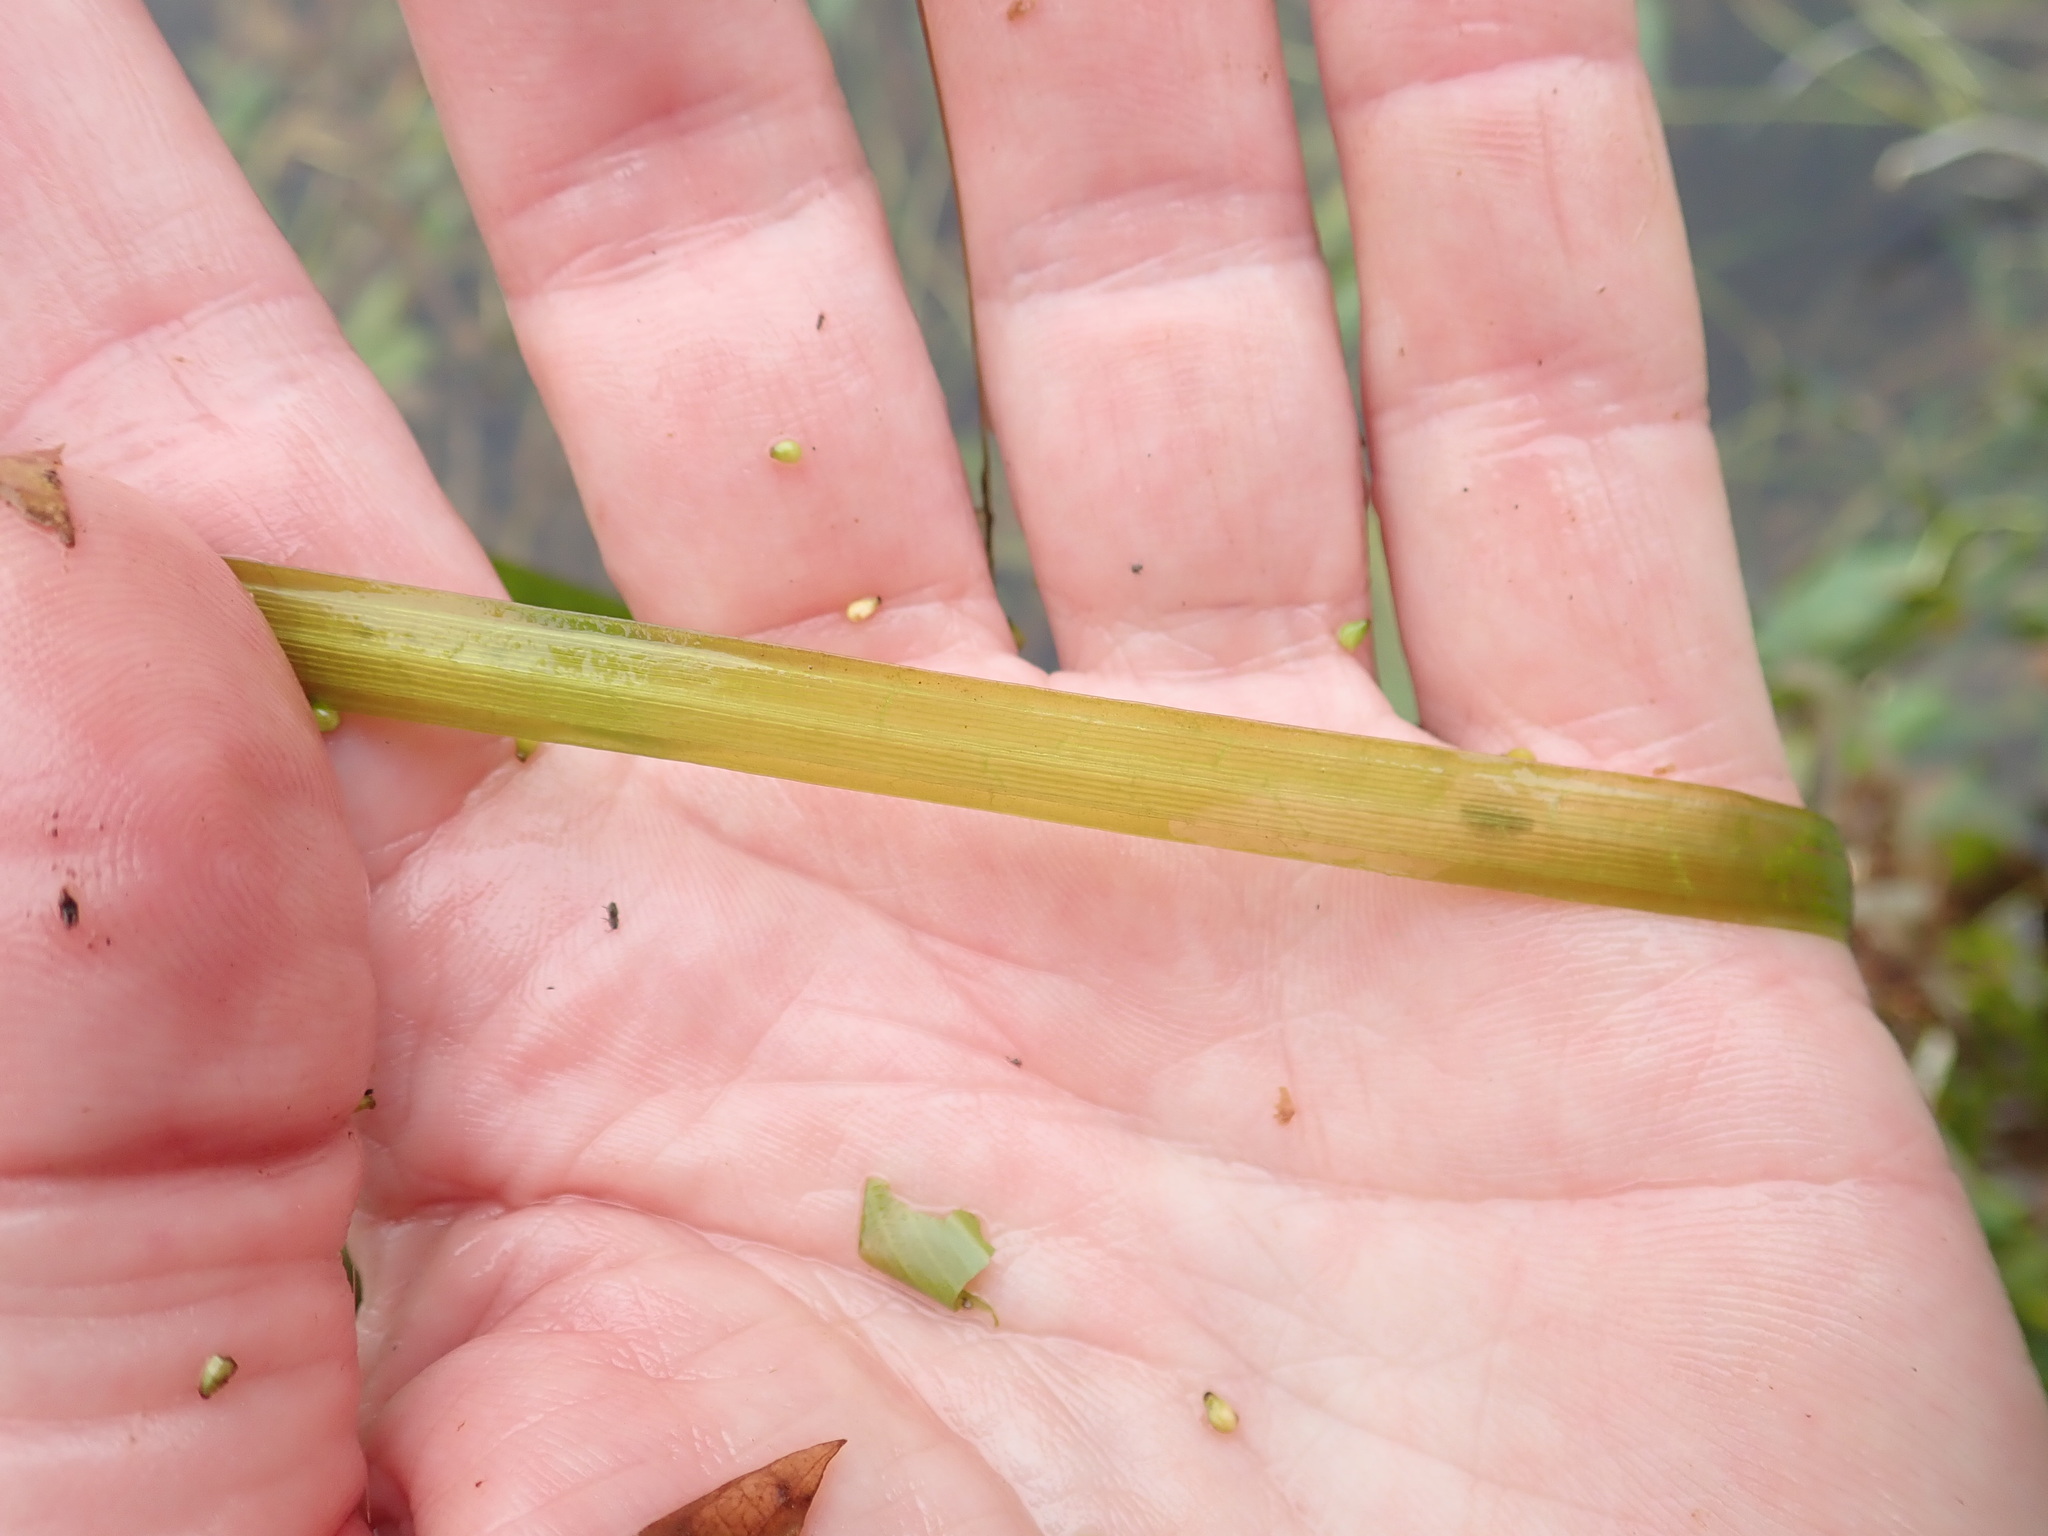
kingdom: Plantae
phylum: Tracheophyta
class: Liliopsida
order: Alismatales
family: Hydrocharitaceae
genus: Vallisneria
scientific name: Vallisneria americana
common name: American eelgrass
